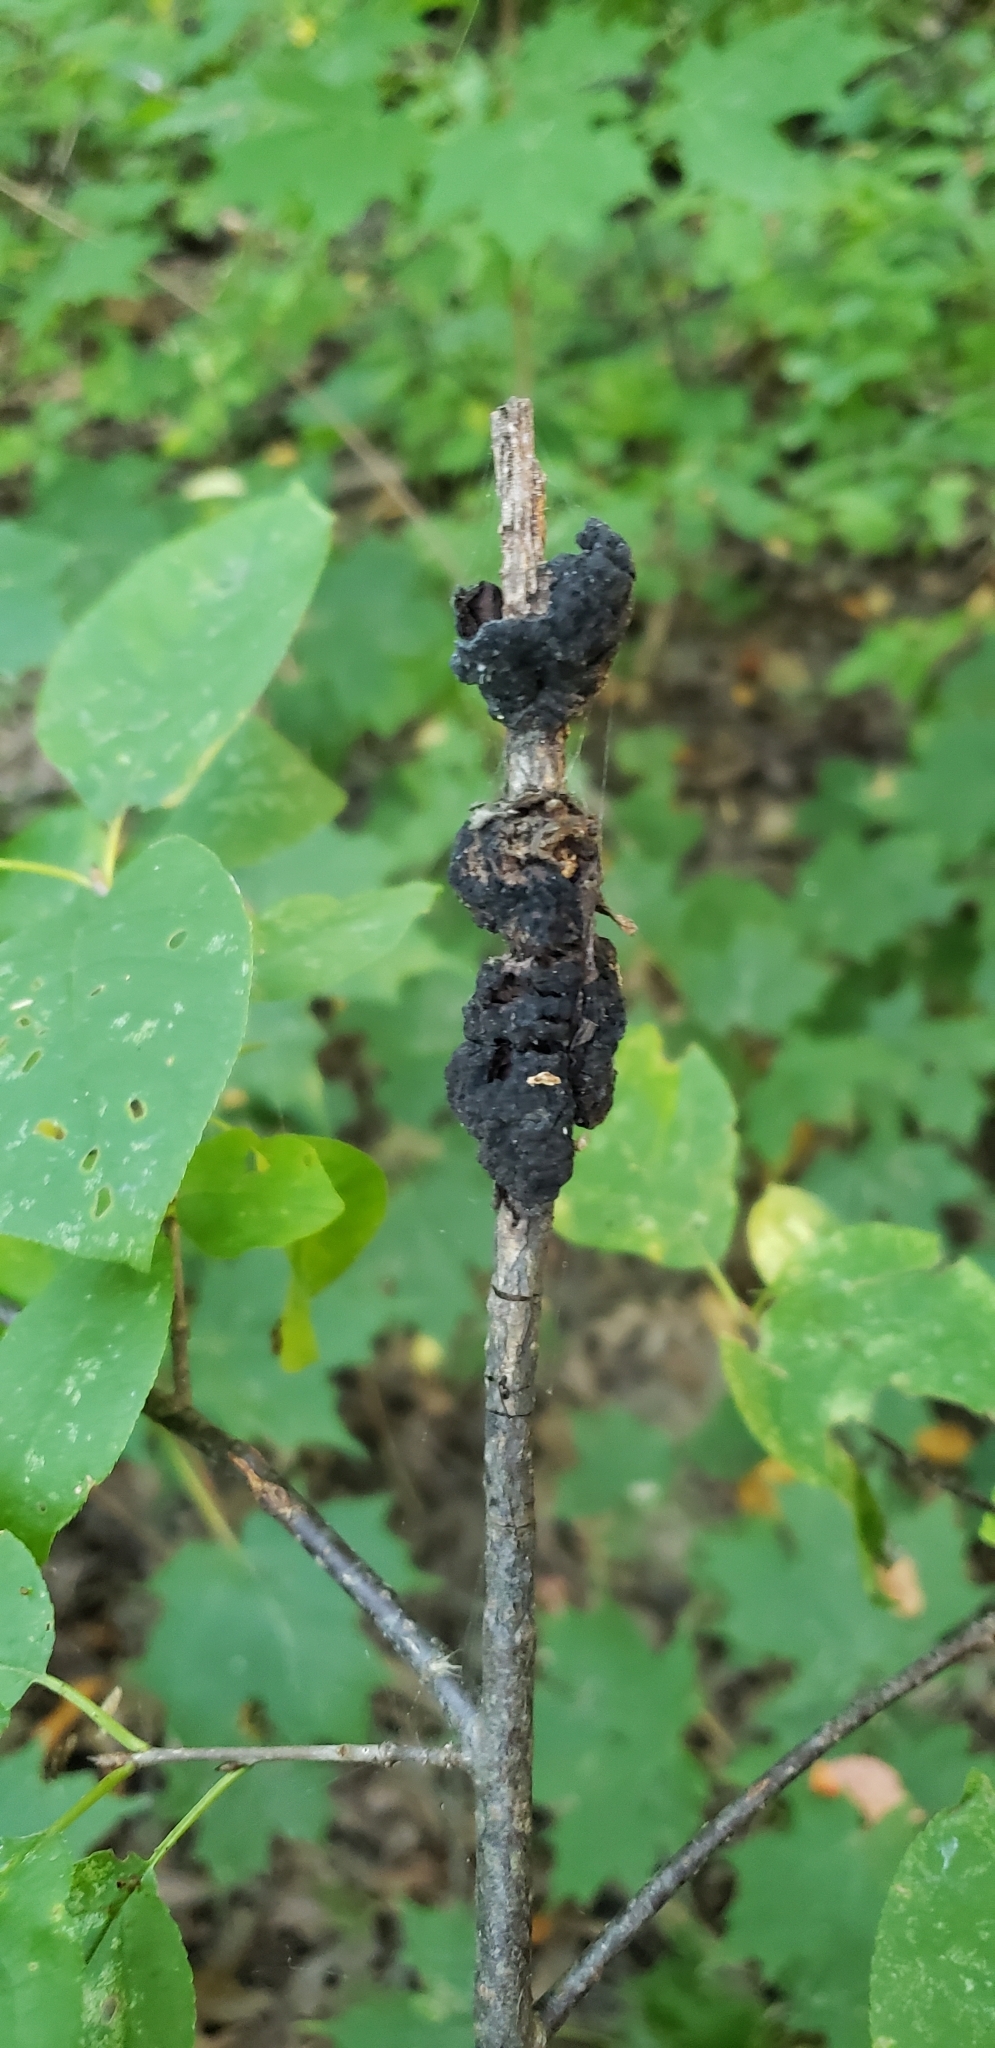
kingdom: Fungi
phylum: Ascomycota
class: Dothideomycetes
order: Venturiales
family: Venturiaceae
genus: Apiosporina
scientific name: Apiosporina morbosa
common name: Black knot
